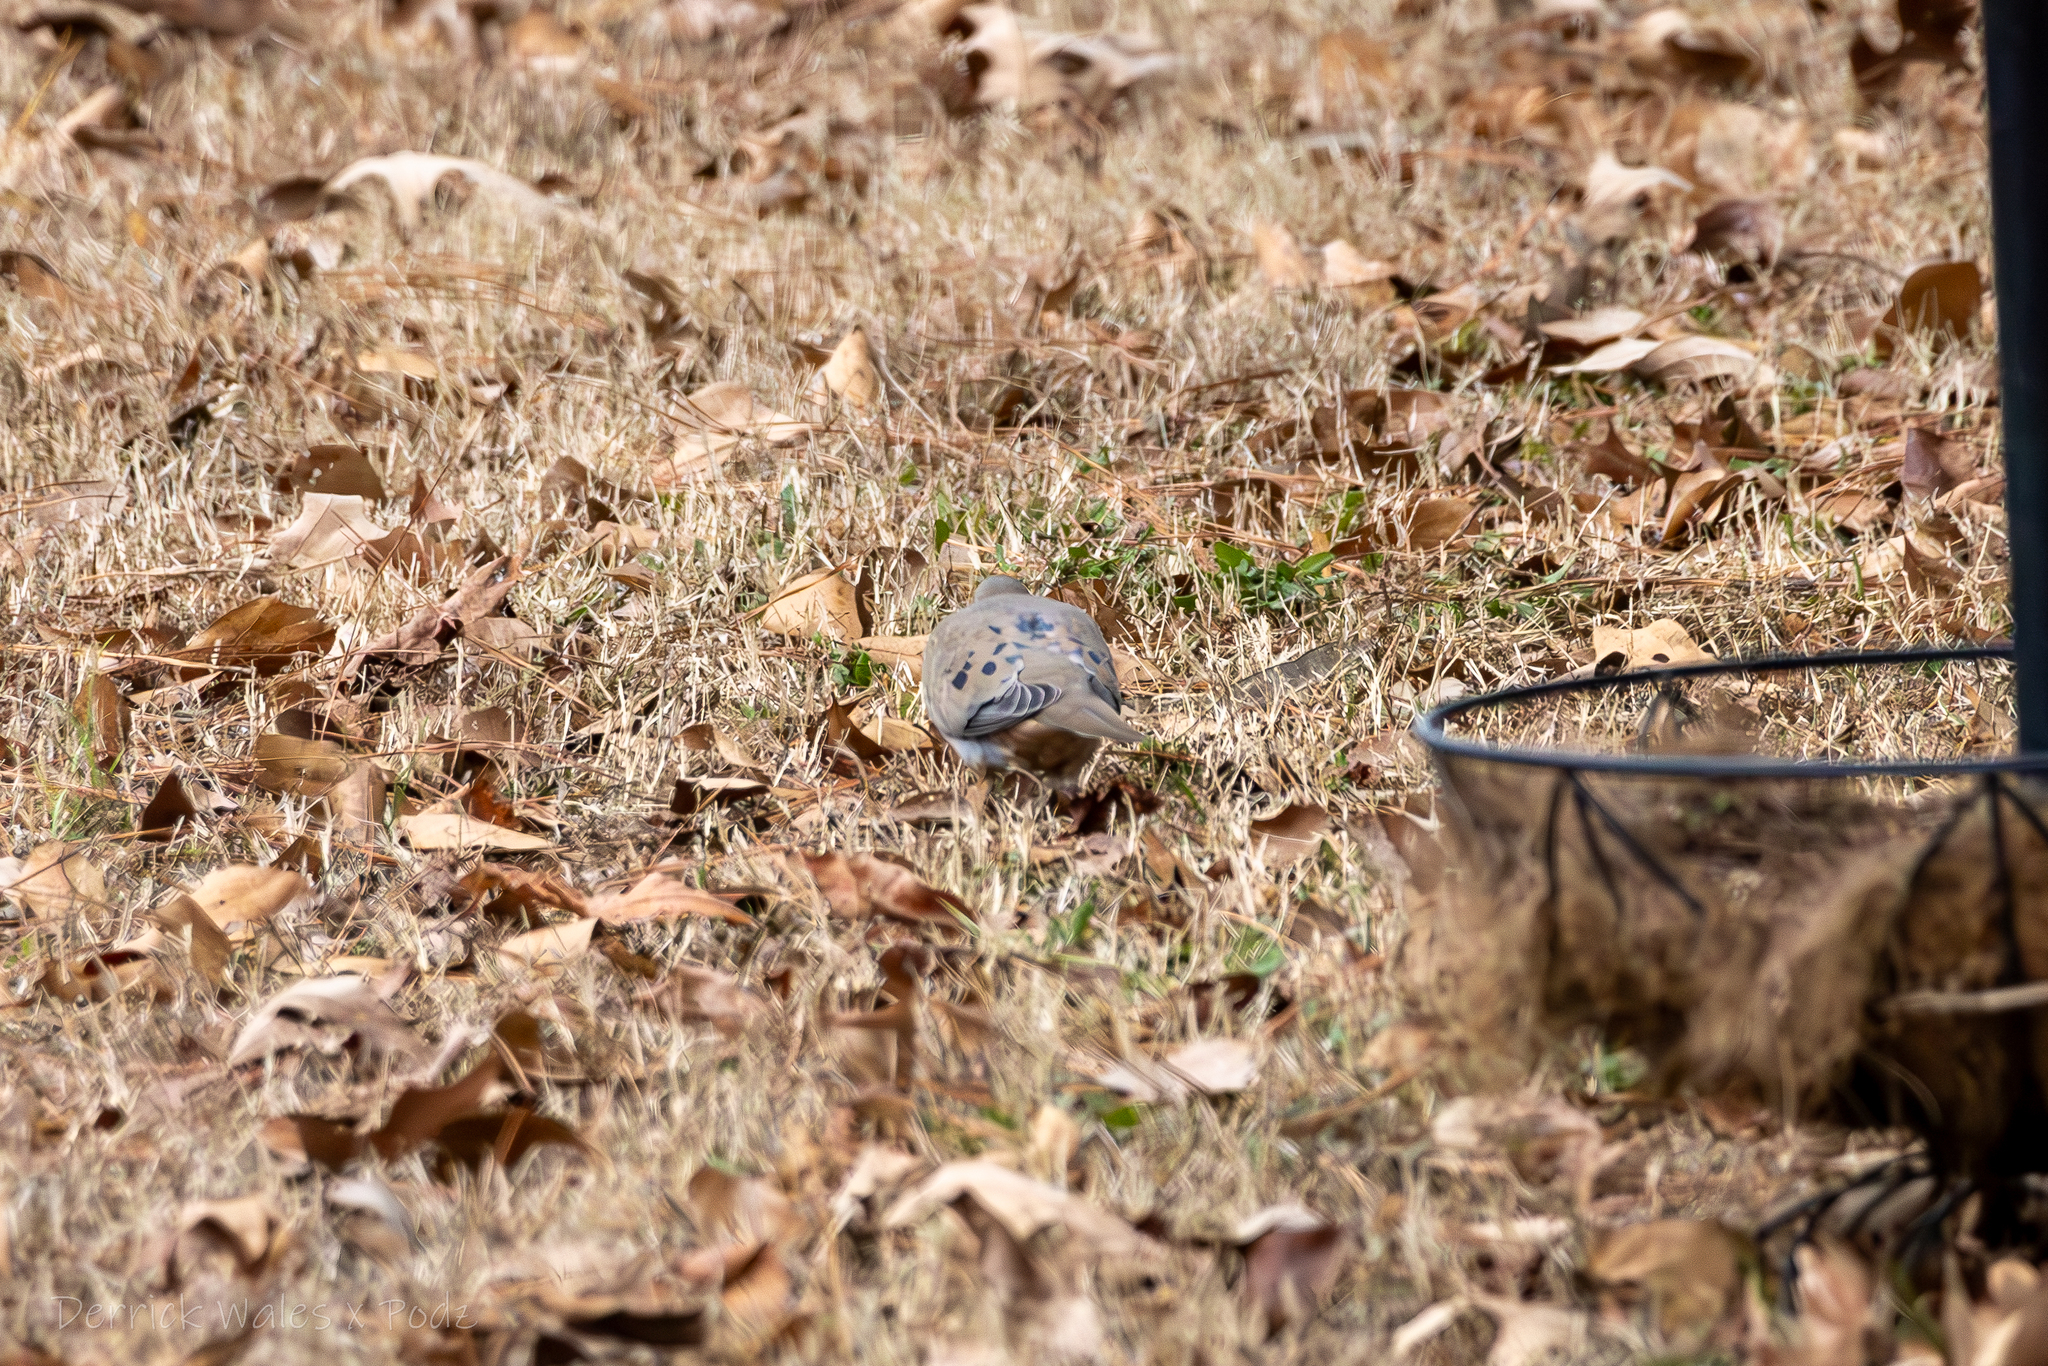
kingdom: Animalia
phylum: Chordata
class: Aves
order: Columbiformes
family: Columbidae
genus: Zenaida
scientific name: Zenaida macroura
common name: Mourning dove
